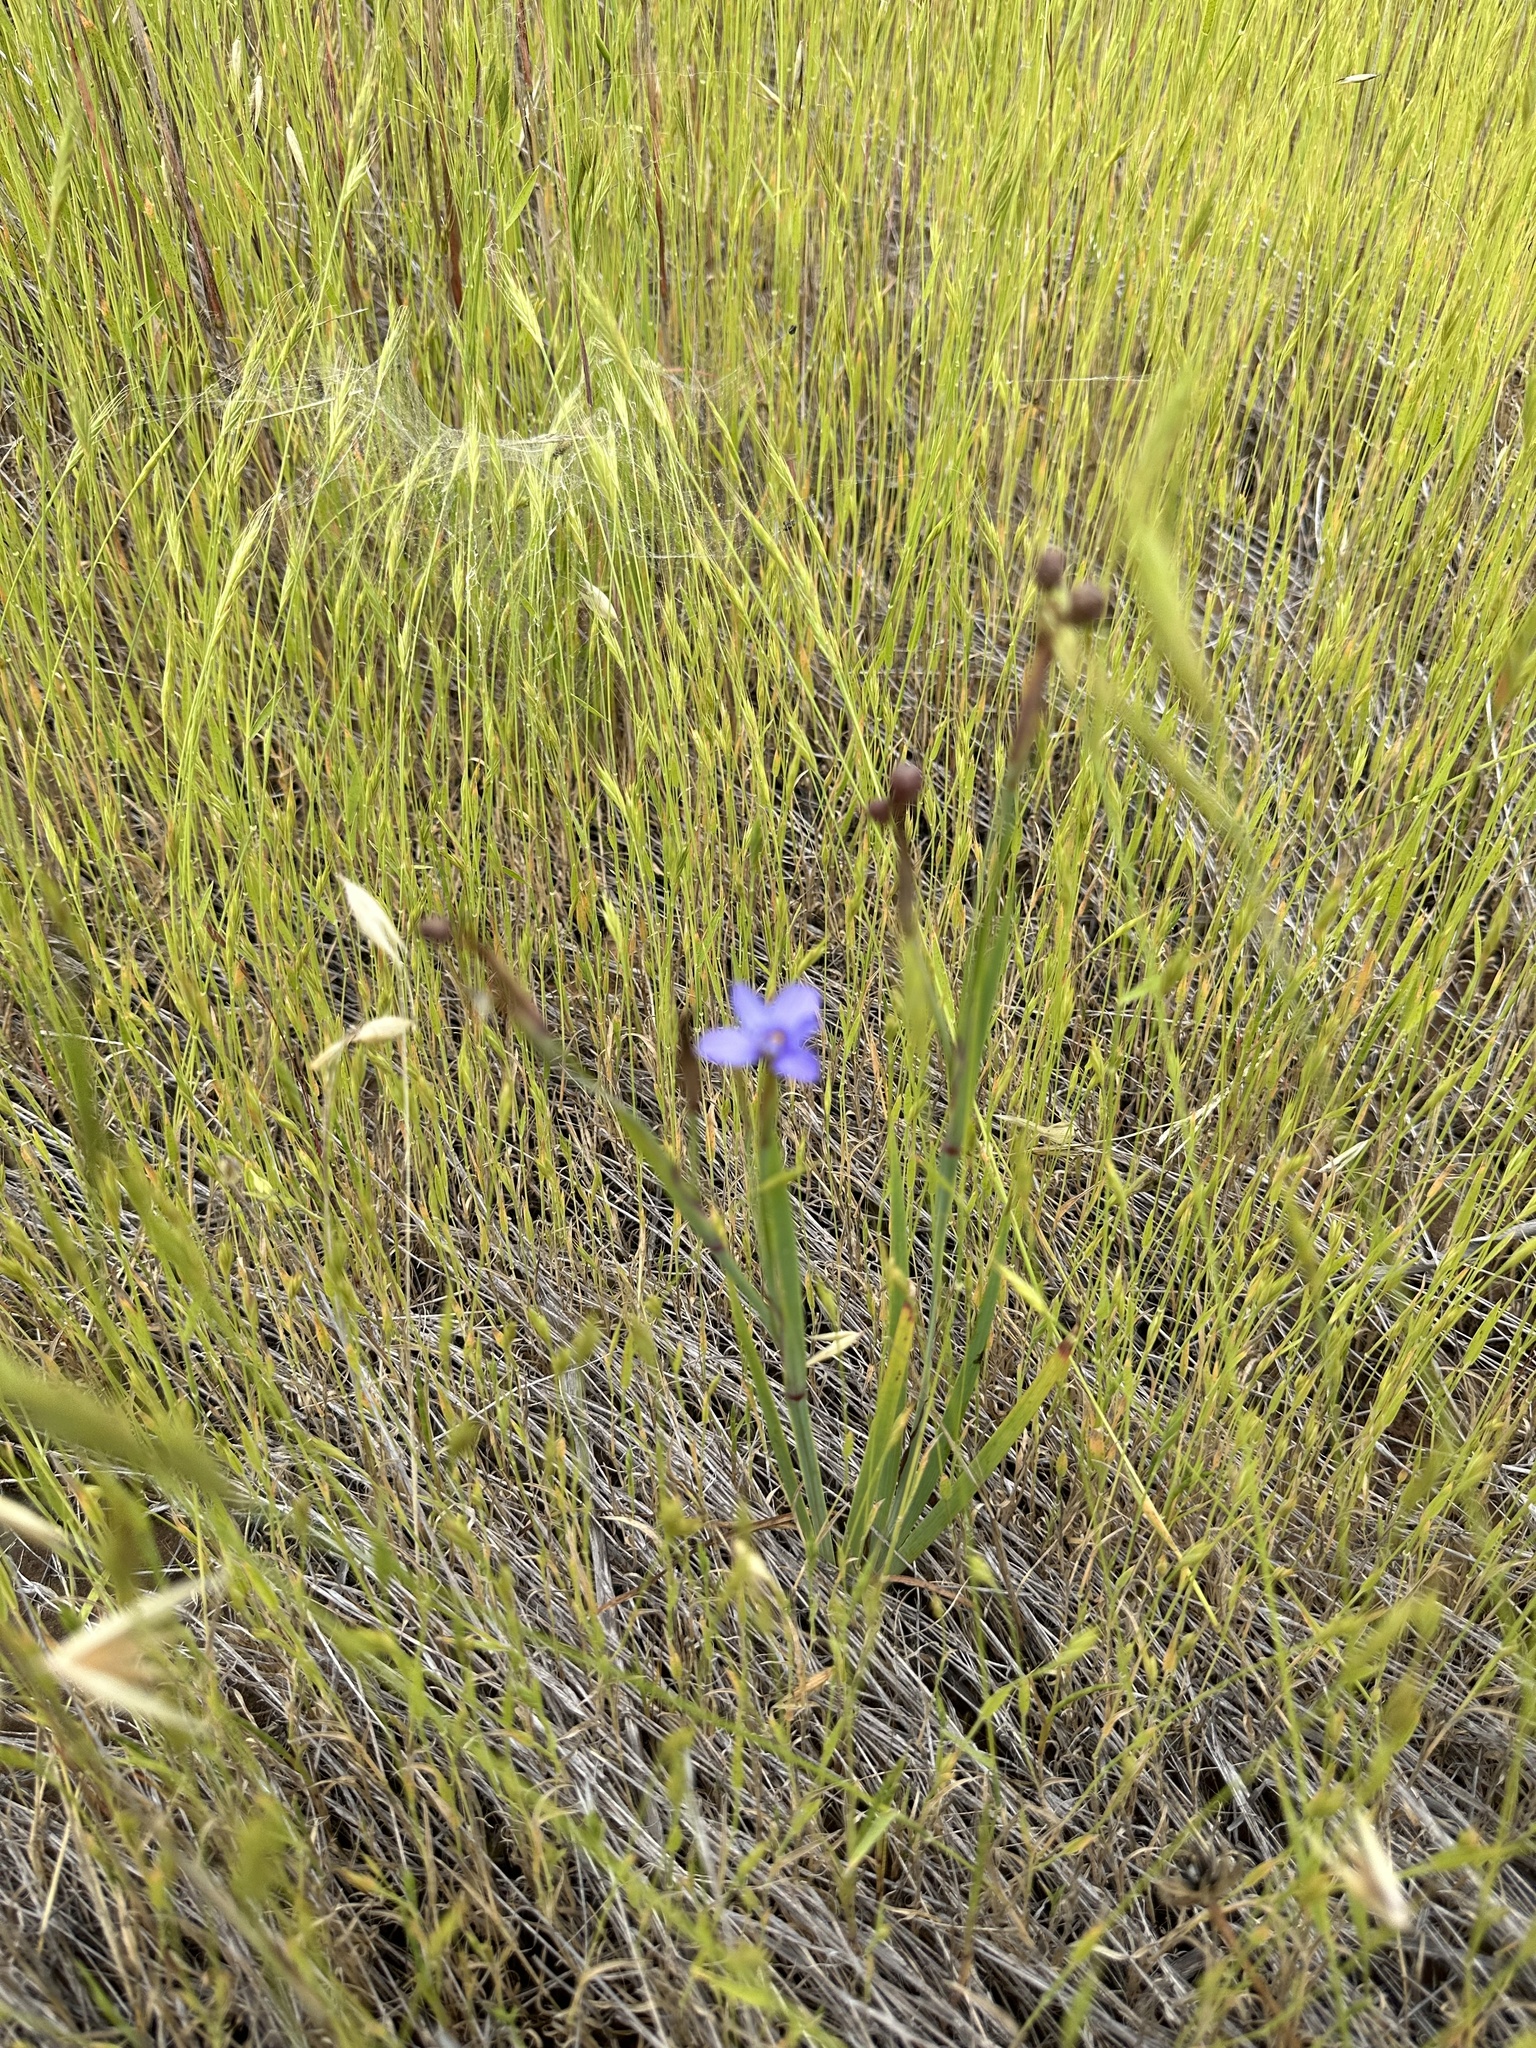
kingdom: Plantae
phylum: Tracheophyta
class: Liliopsida
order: Asparagales
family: Iridaceae
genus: Sisyrinchium
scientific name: Sisyrinchium bellum
